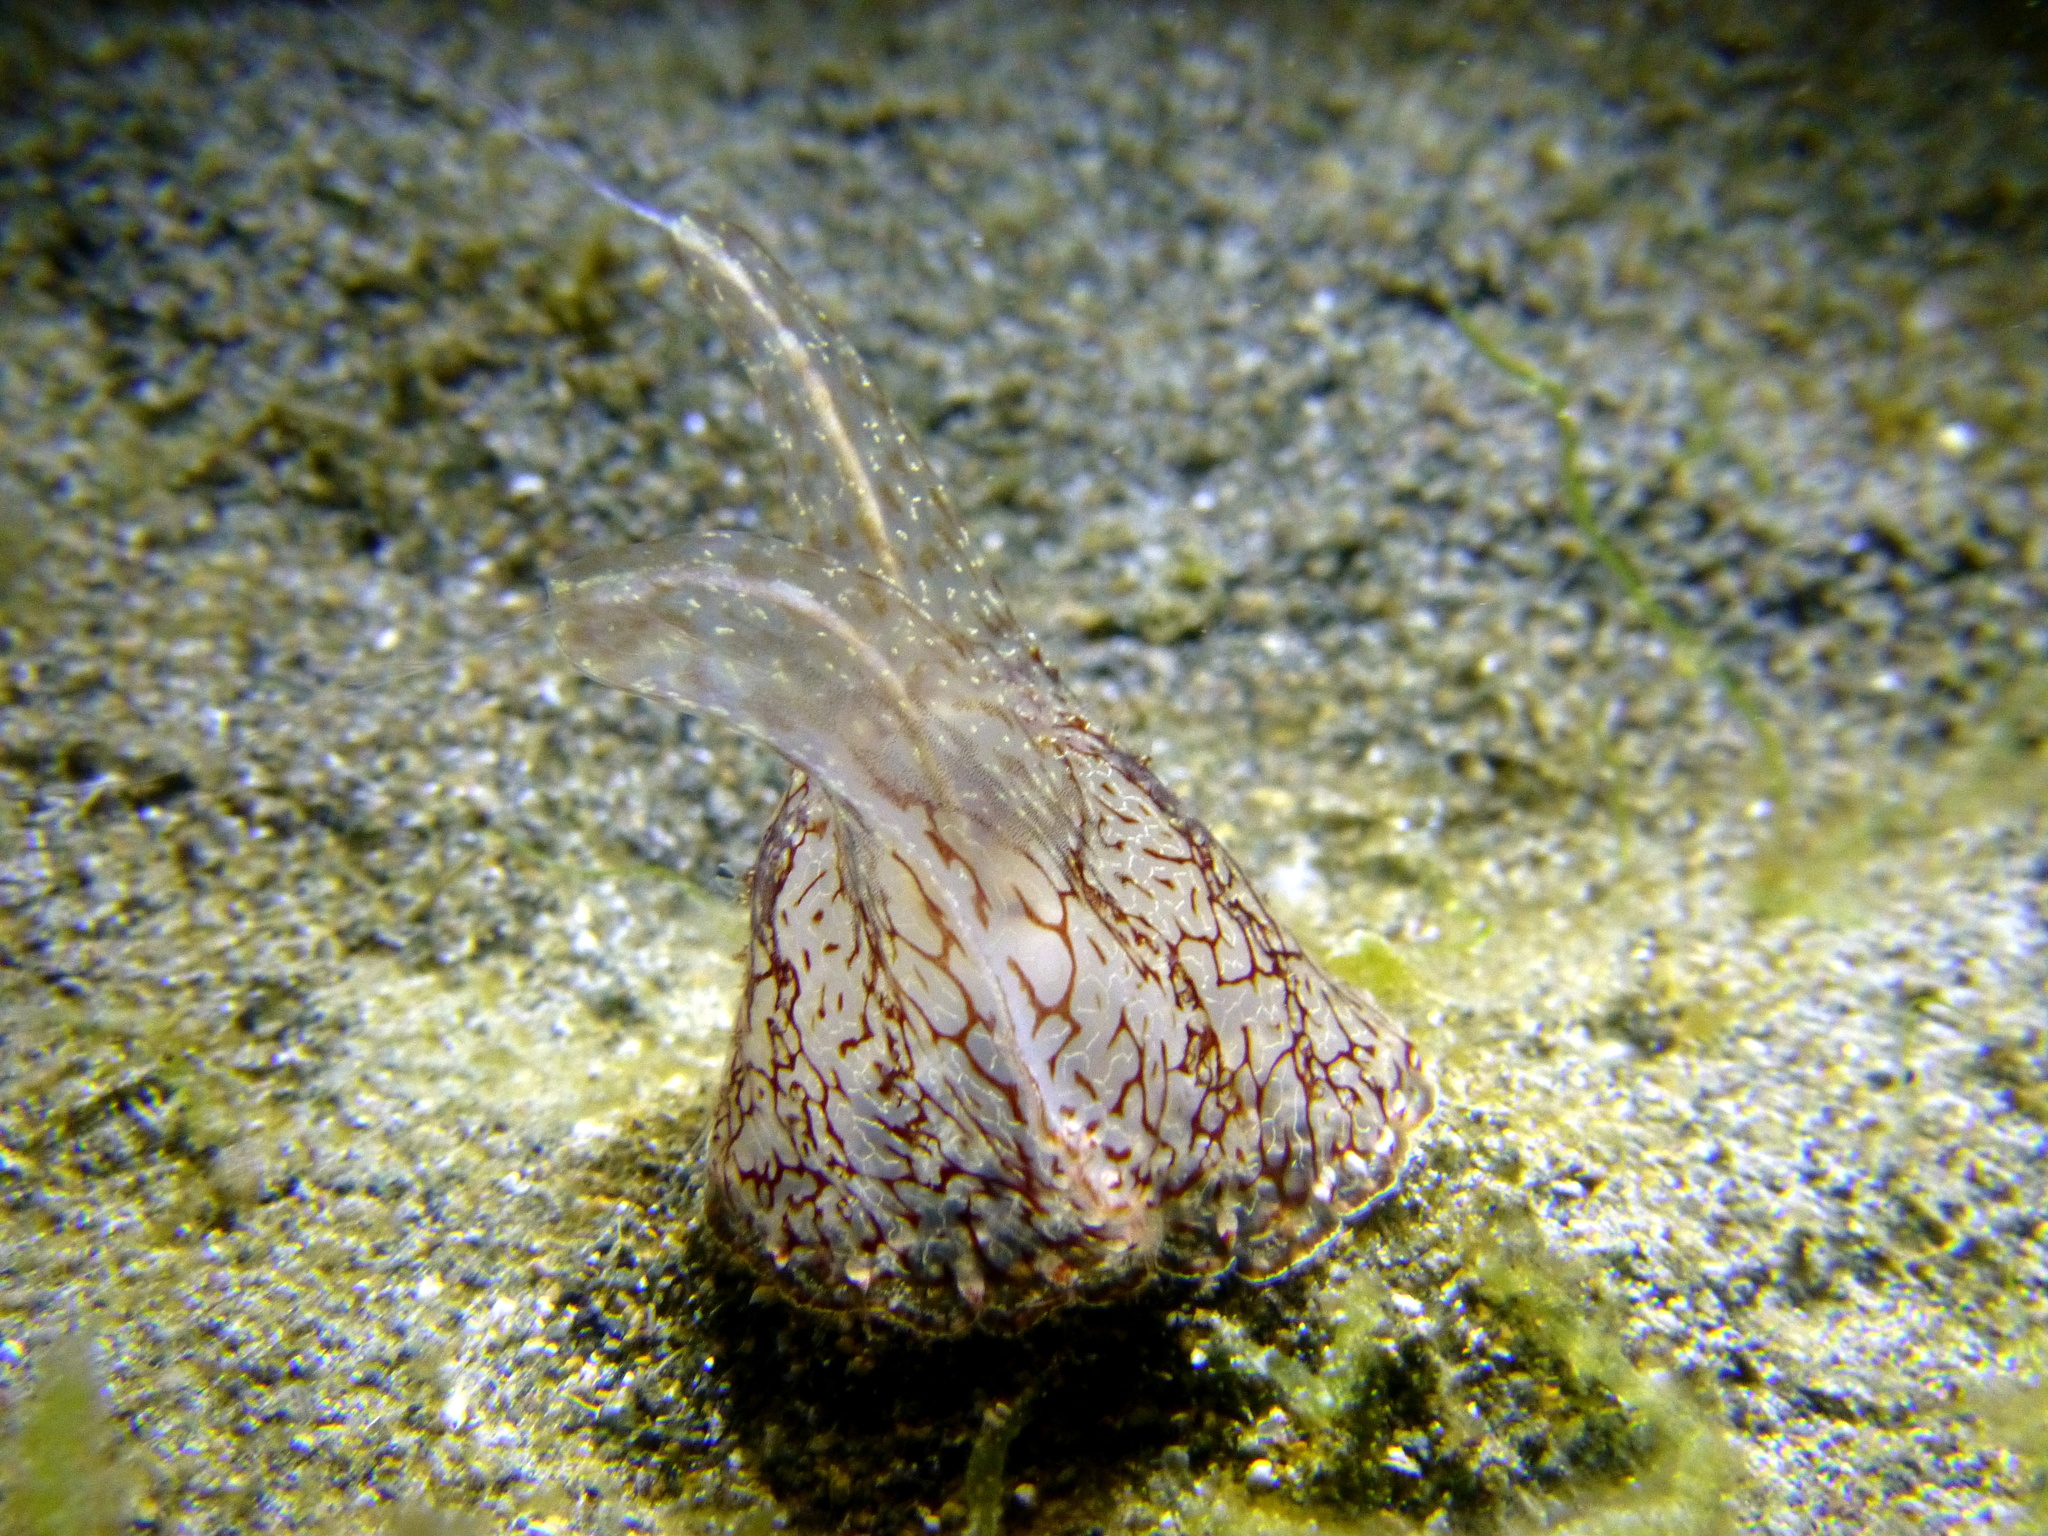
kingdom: Animalia
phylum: Ctenophora
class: Tentaculata
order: Platyctenida
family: Coeloplanidae
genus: Coeloplana
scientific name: Coeloplana meteoris
